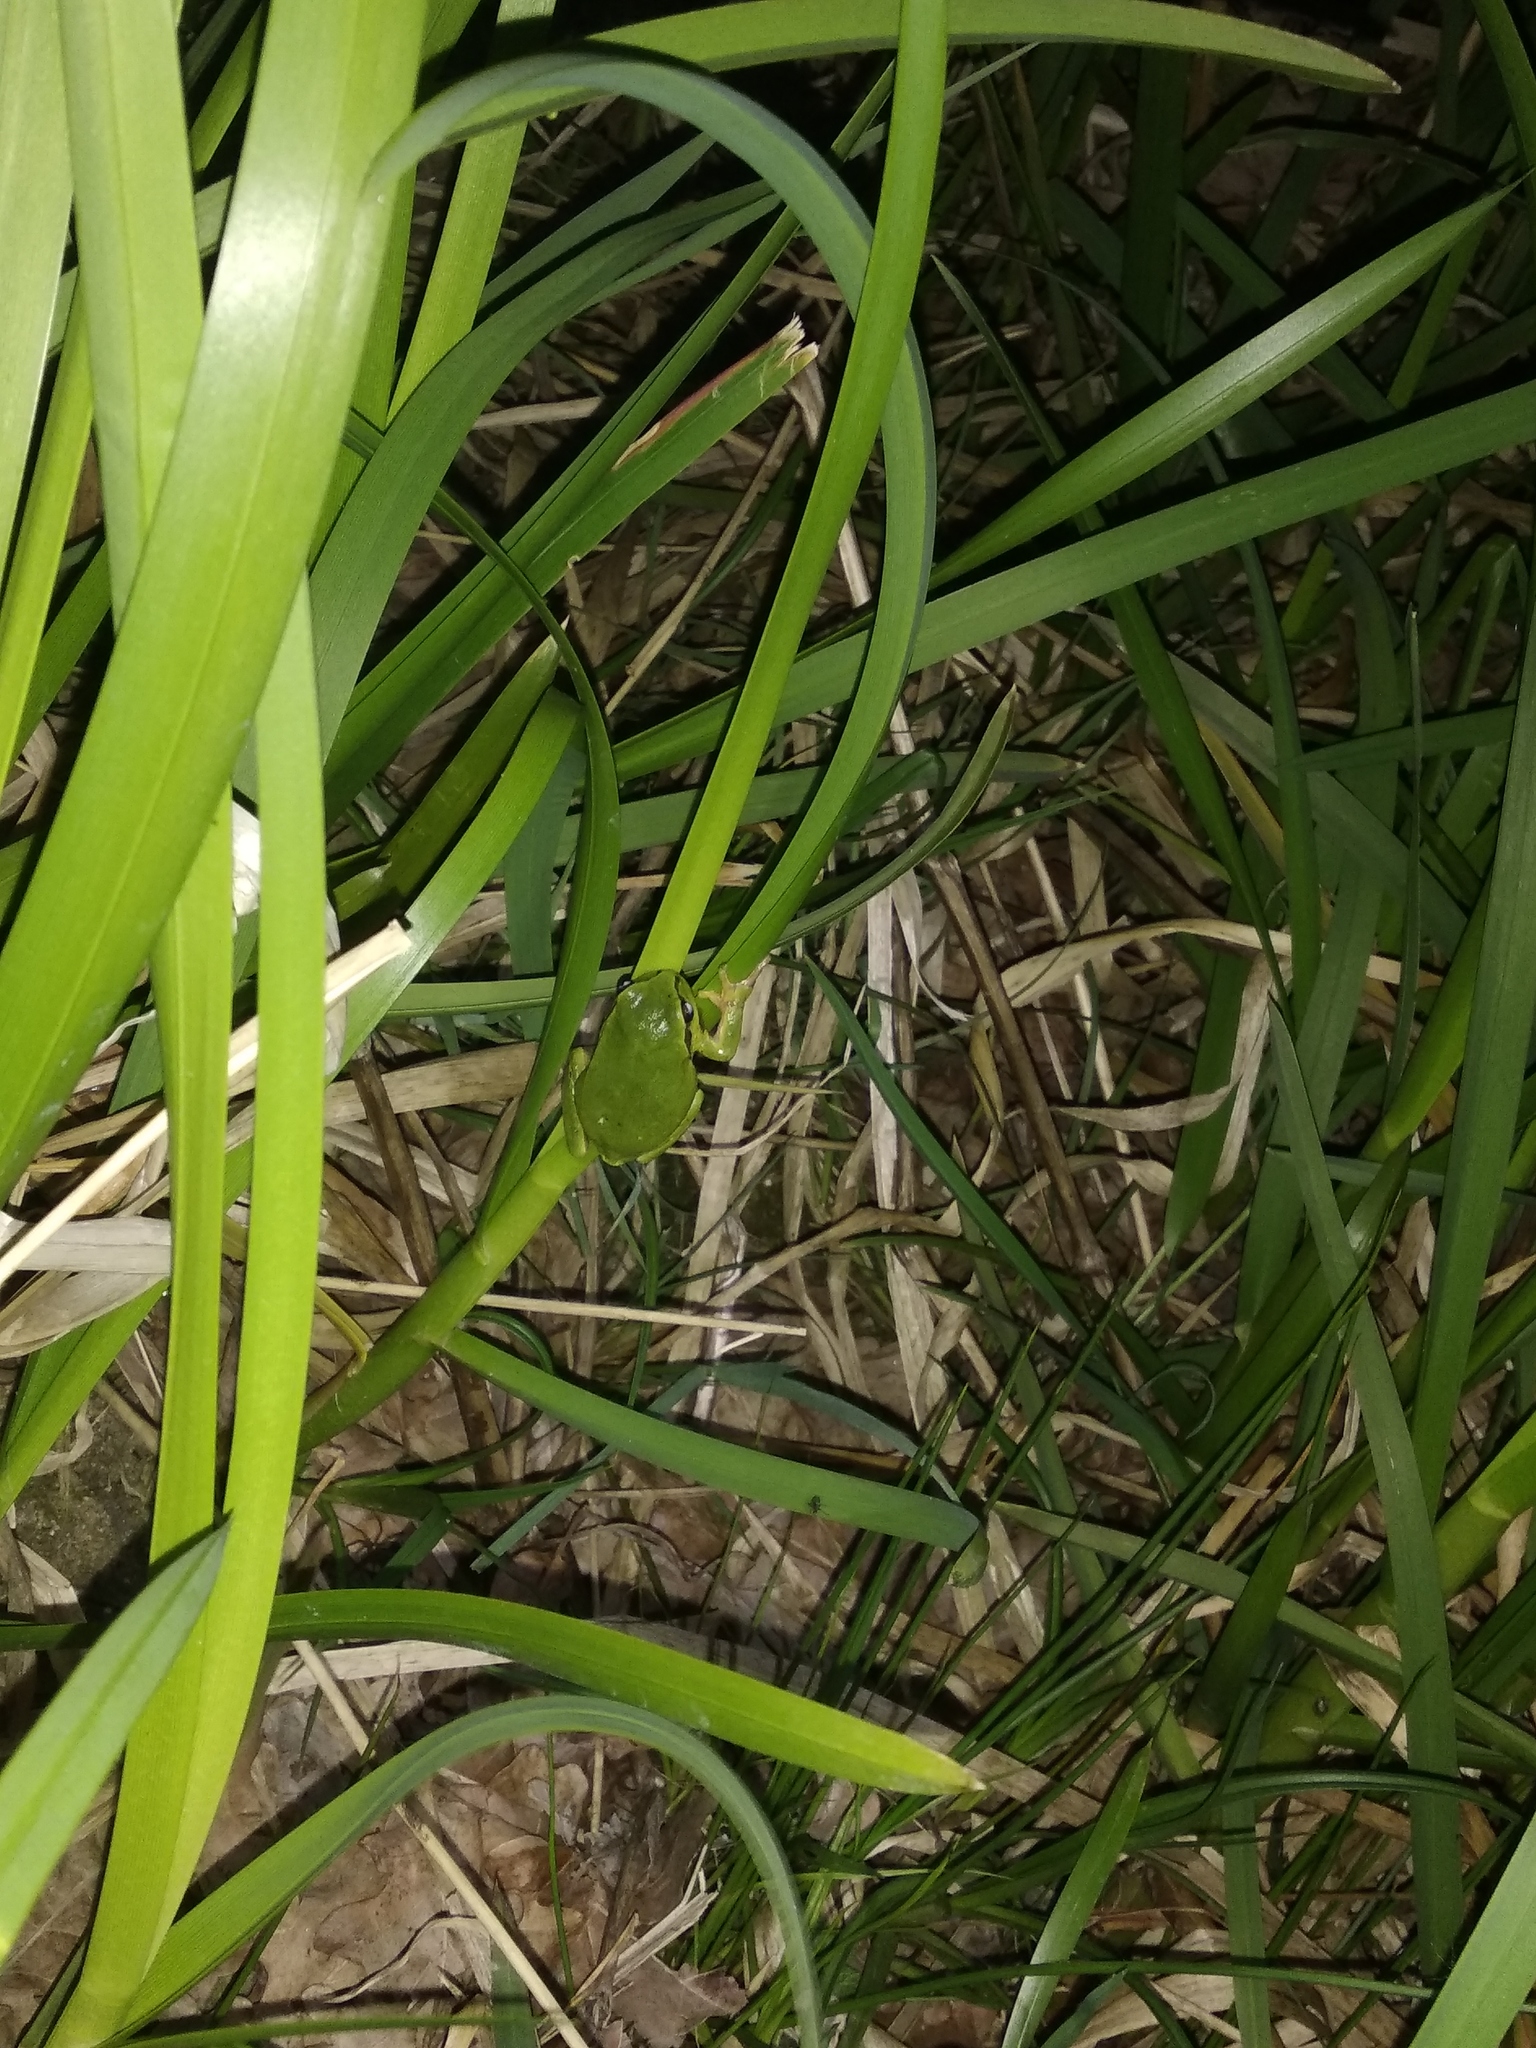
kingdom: Animalia
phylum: Chordata
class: Amphibia
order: Anura
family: Hylidae
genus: Hyla
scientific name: Hyla arborea
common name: Common tree frog
